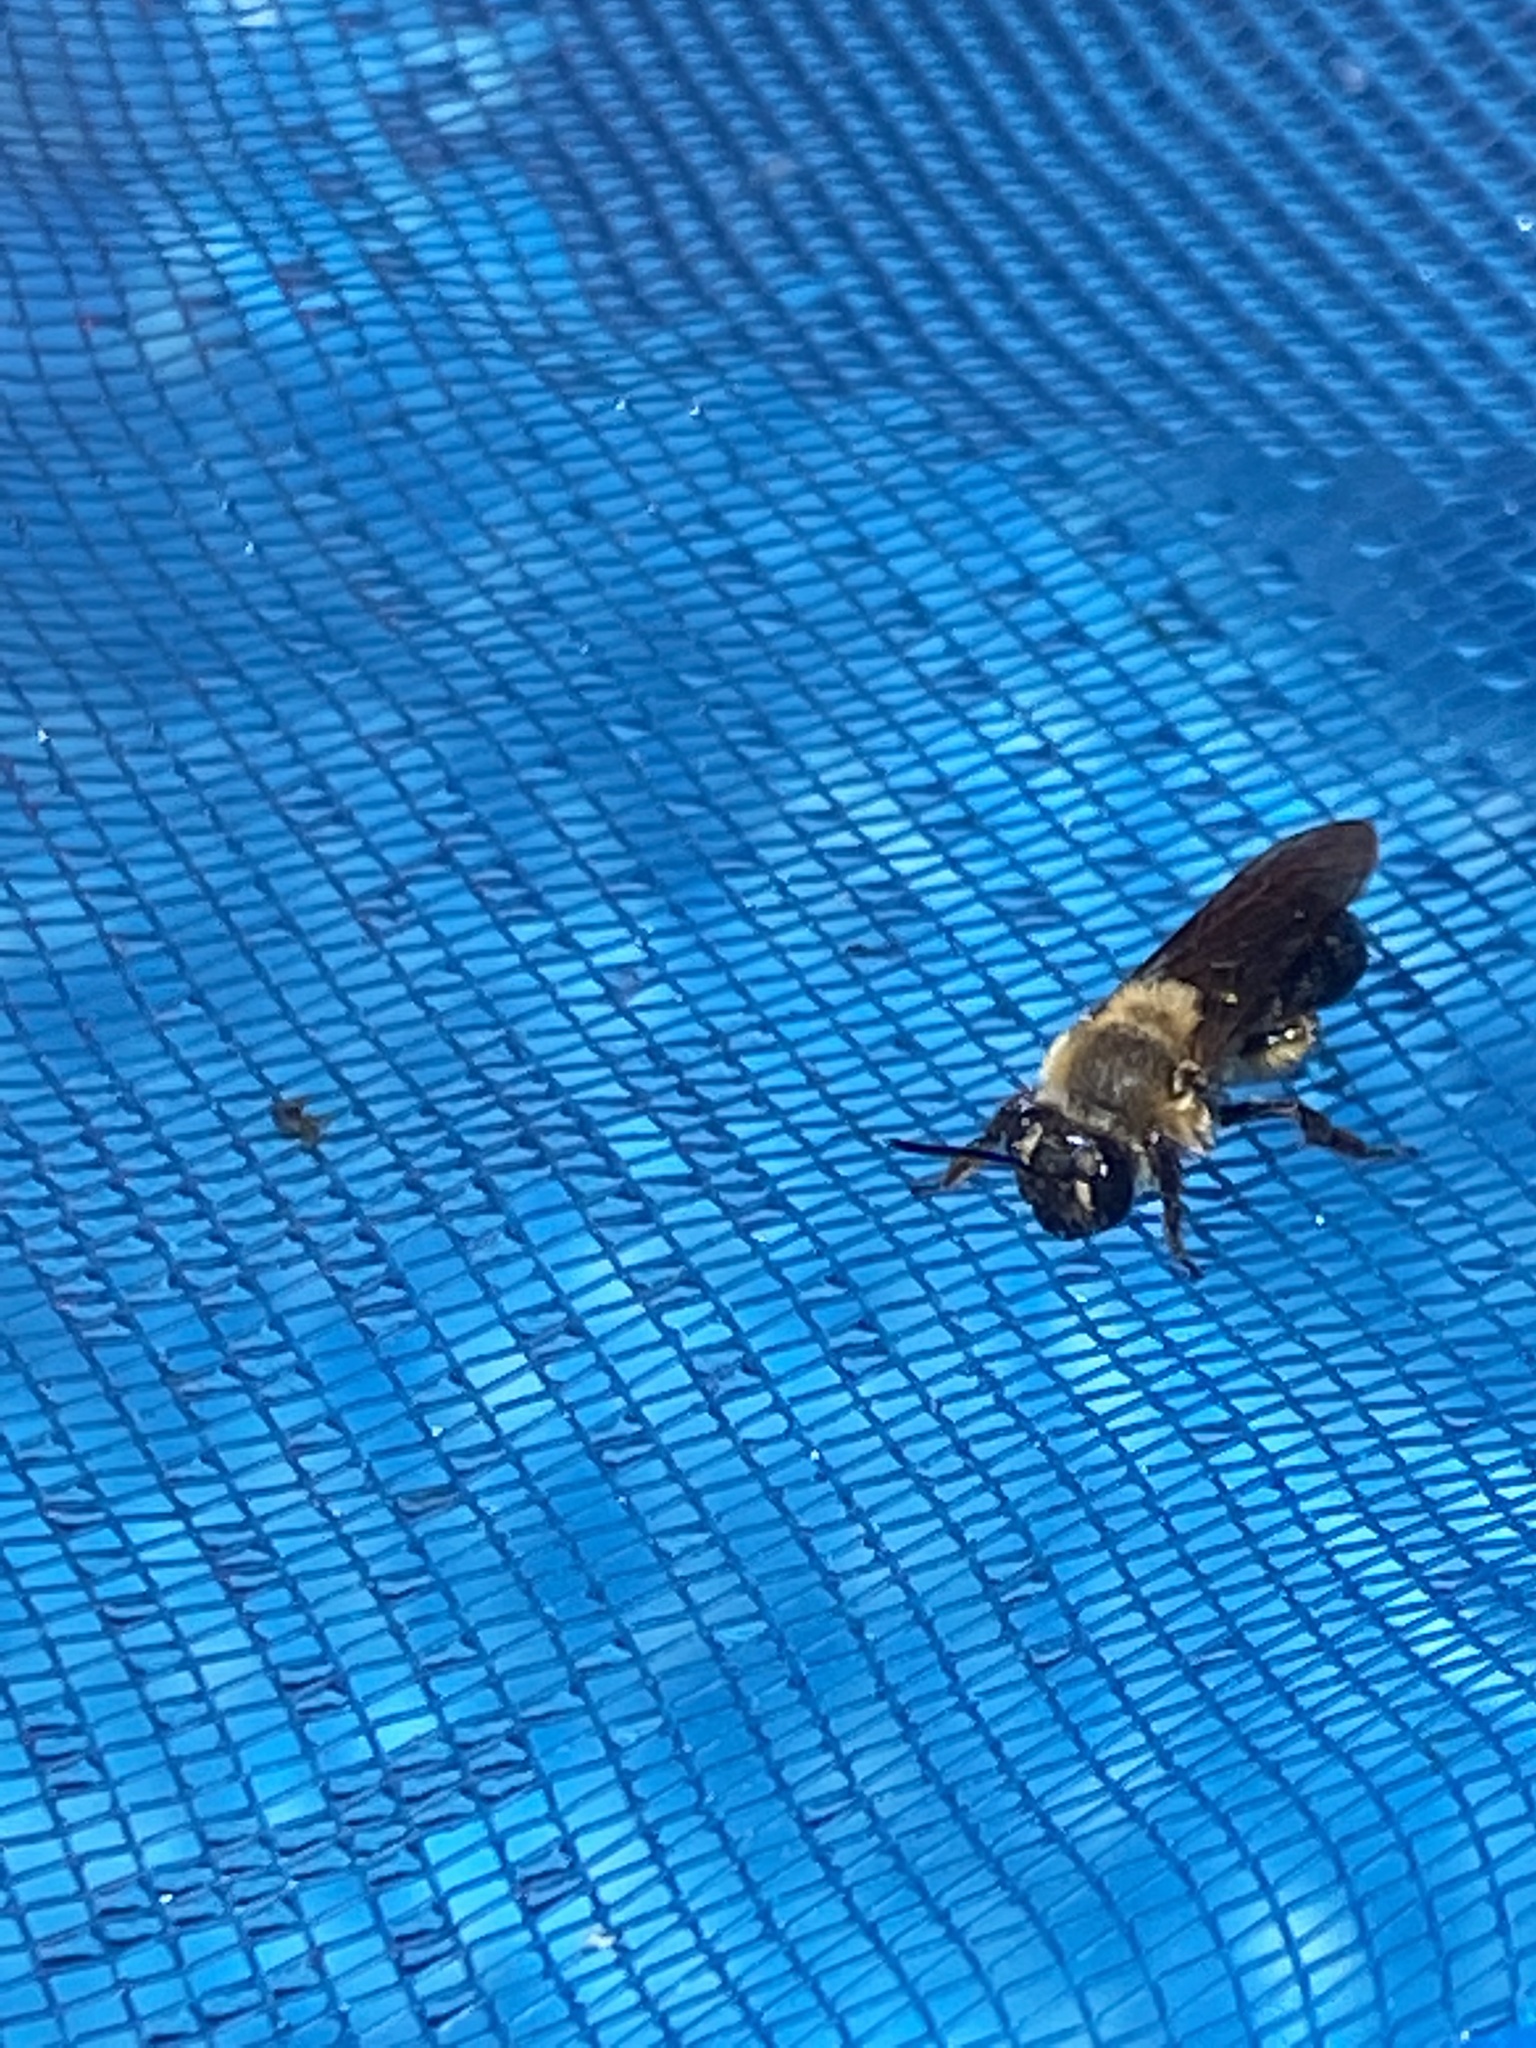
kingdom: Animalia
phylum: Arthropoda
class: Insecta
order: Hymenoptera
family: Andrenidae
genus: Andrena
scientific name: Andrena vicina
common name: Neighborly mining bee
